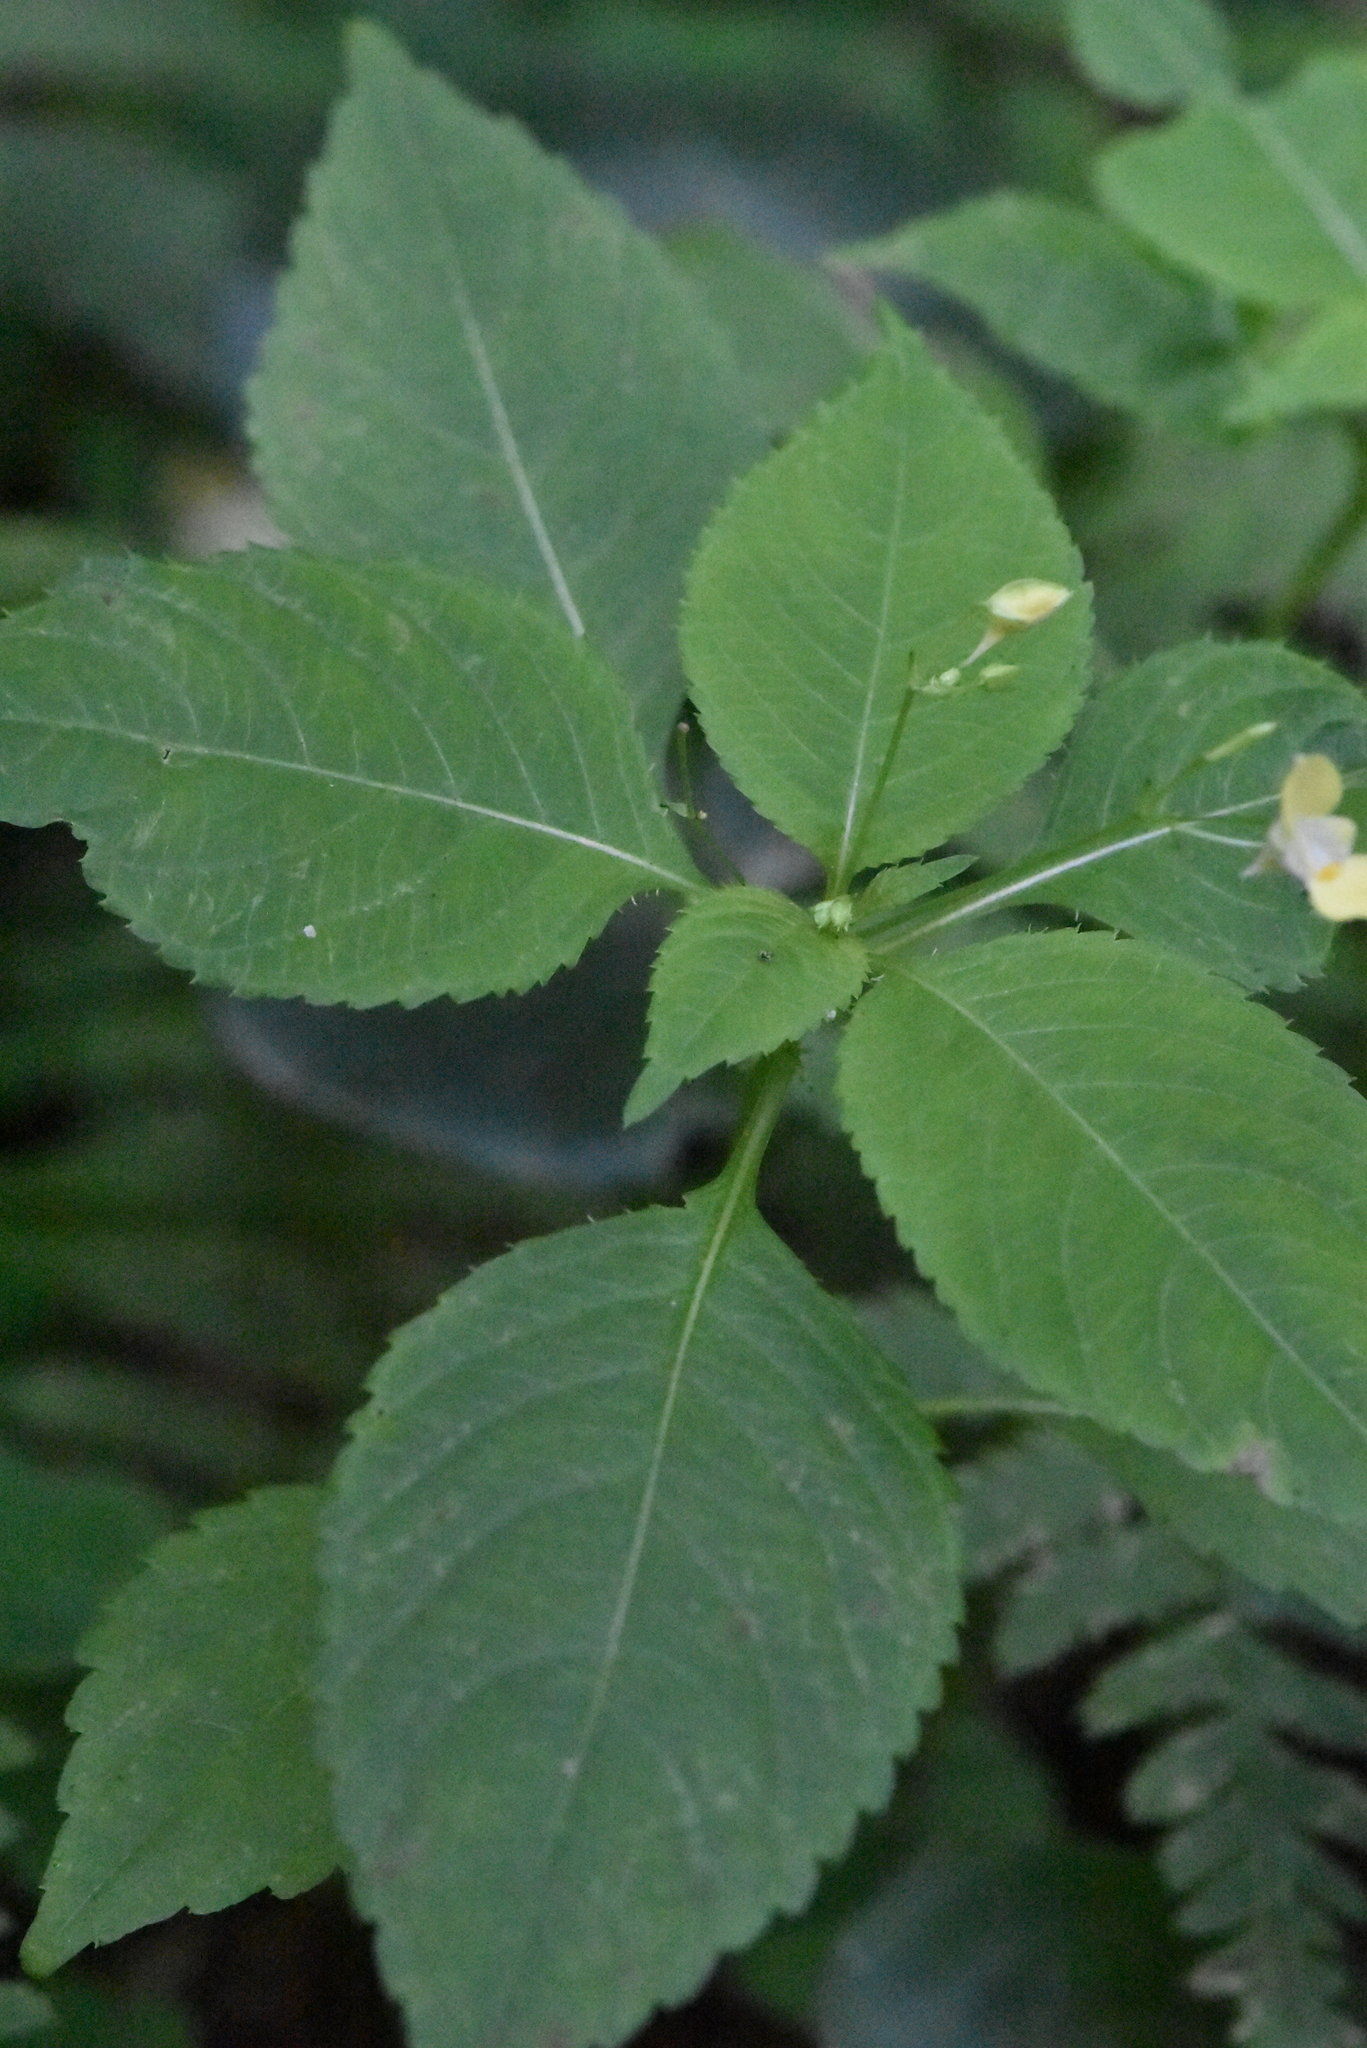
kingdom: Plantae
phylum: Tracheophyta
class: Magnoliopsida
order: Ericales
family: Balsaminaceae
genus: Impatiens
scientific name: Impatiens parviflora
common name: Small balsam
